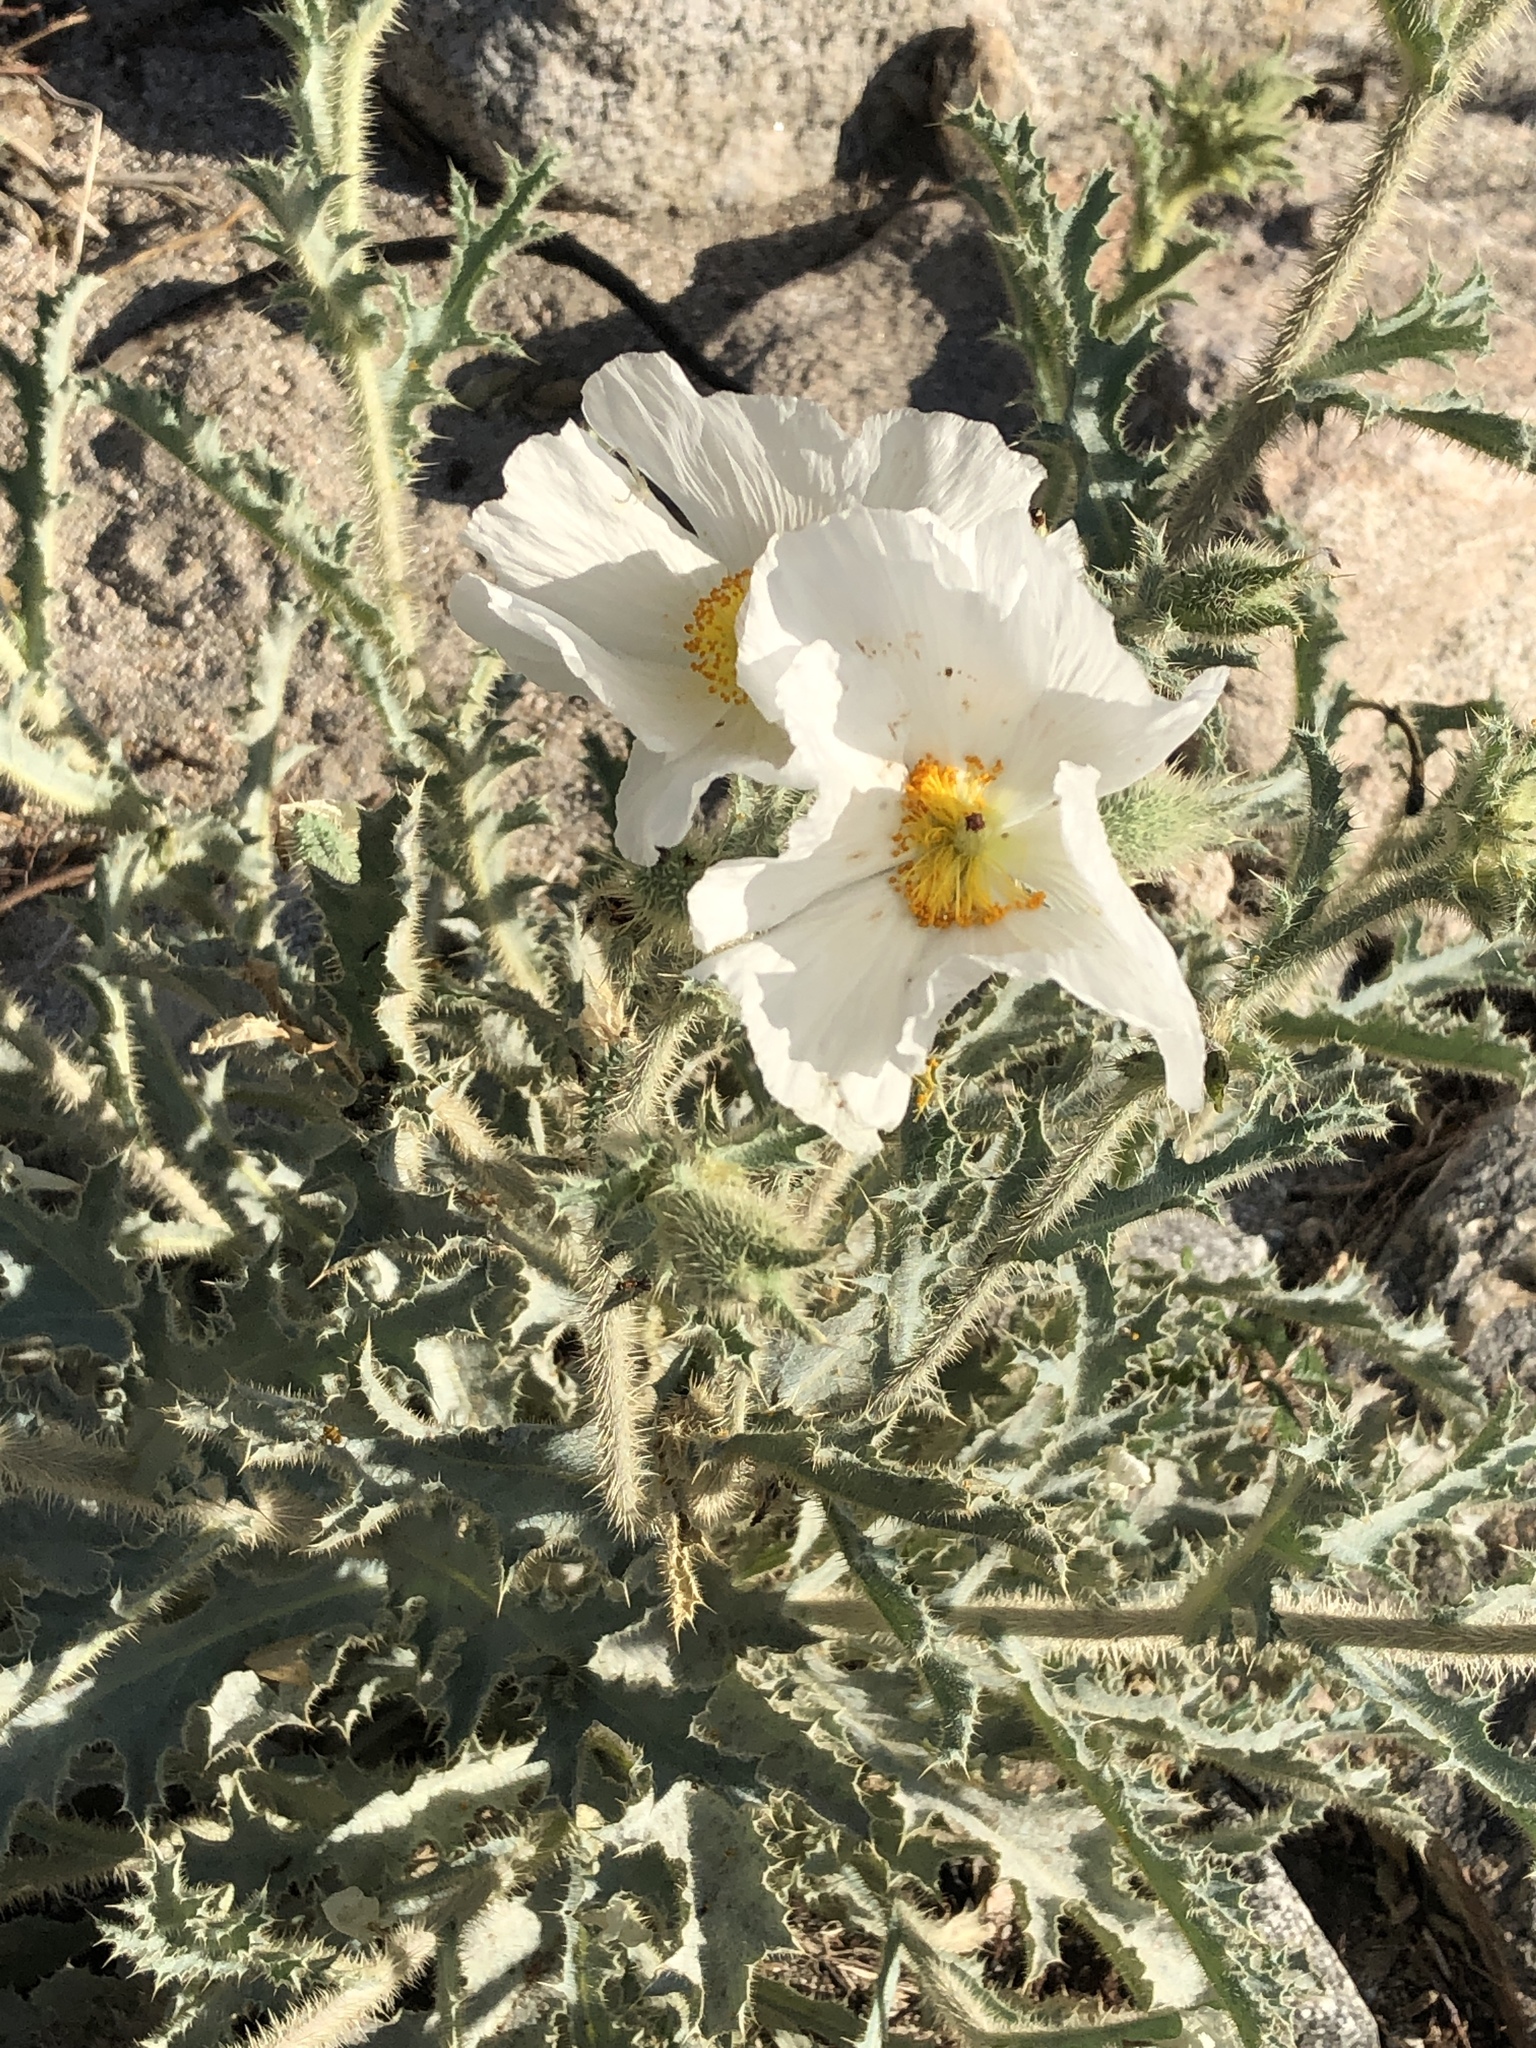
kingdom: Plantae
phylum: Tracheophyta
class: Magnoliopsida
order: Ranunculales
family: Papaveraceae
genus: Argemone
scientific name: Argemone munita
